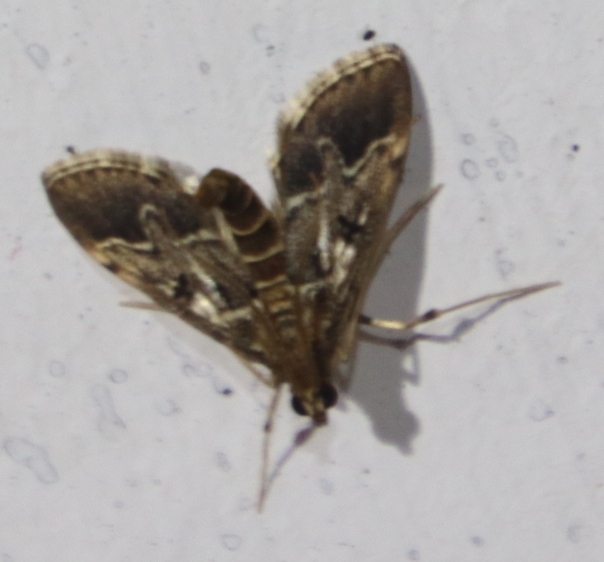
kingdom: Animalia
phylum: Arthropoda
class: Insecta
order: Lepidoptera
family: Crambidae
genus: Duponchelia
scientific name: Duponchelia fovealis
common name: Crambid moth
